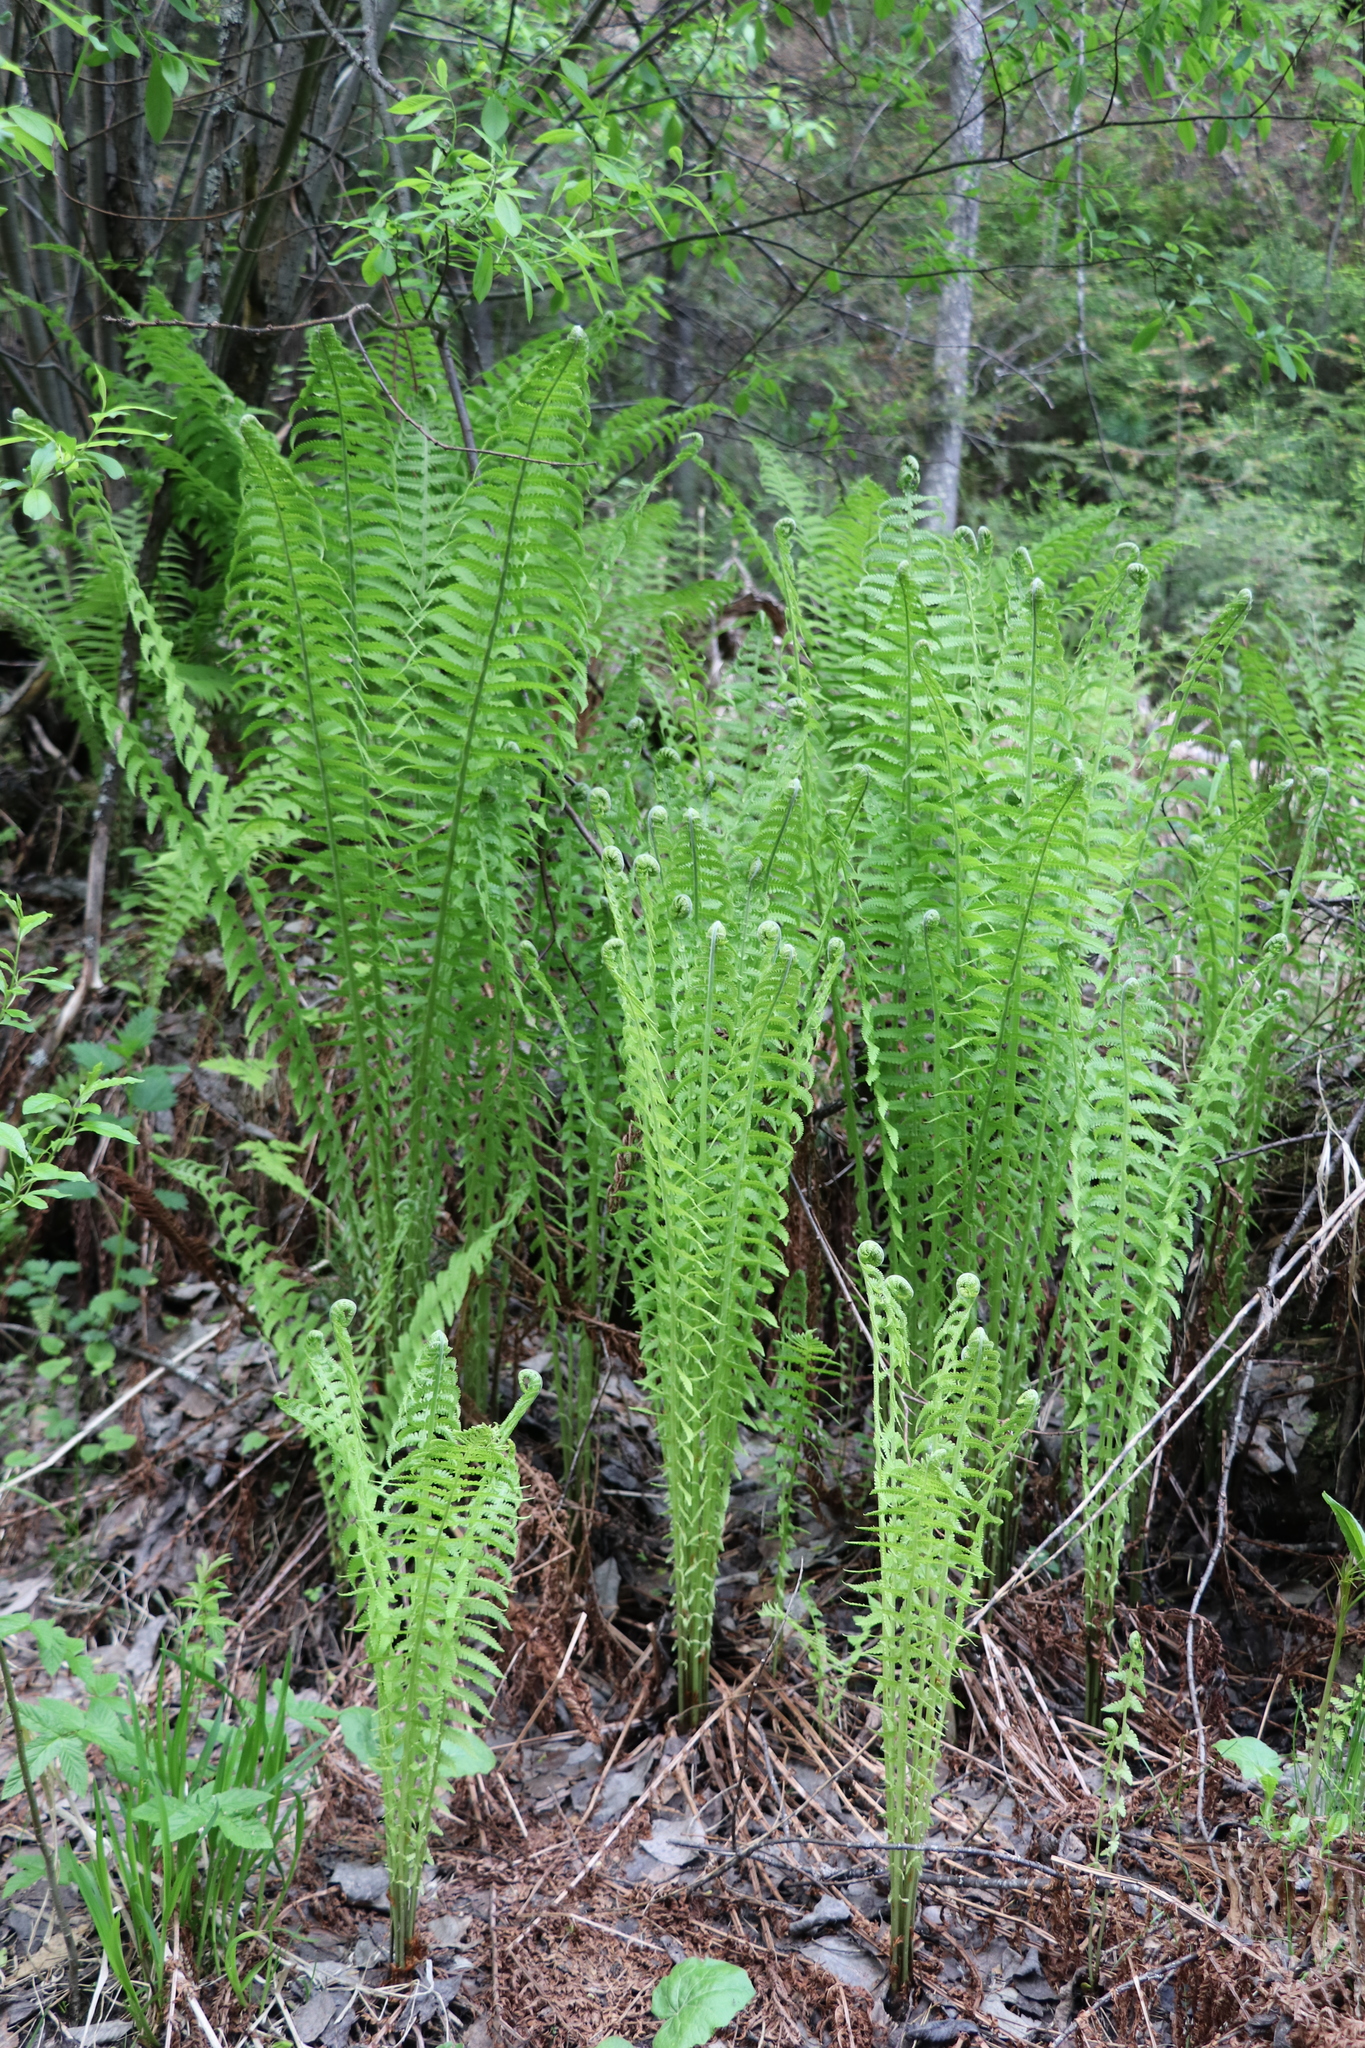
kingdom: Plantae
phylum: Tracheophyta
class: Polypodiopsida
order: Polypodiales
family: Onocleaceae
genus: Matteuccia
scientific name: Matteuccia struthiopteris
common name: Ostrich fern
